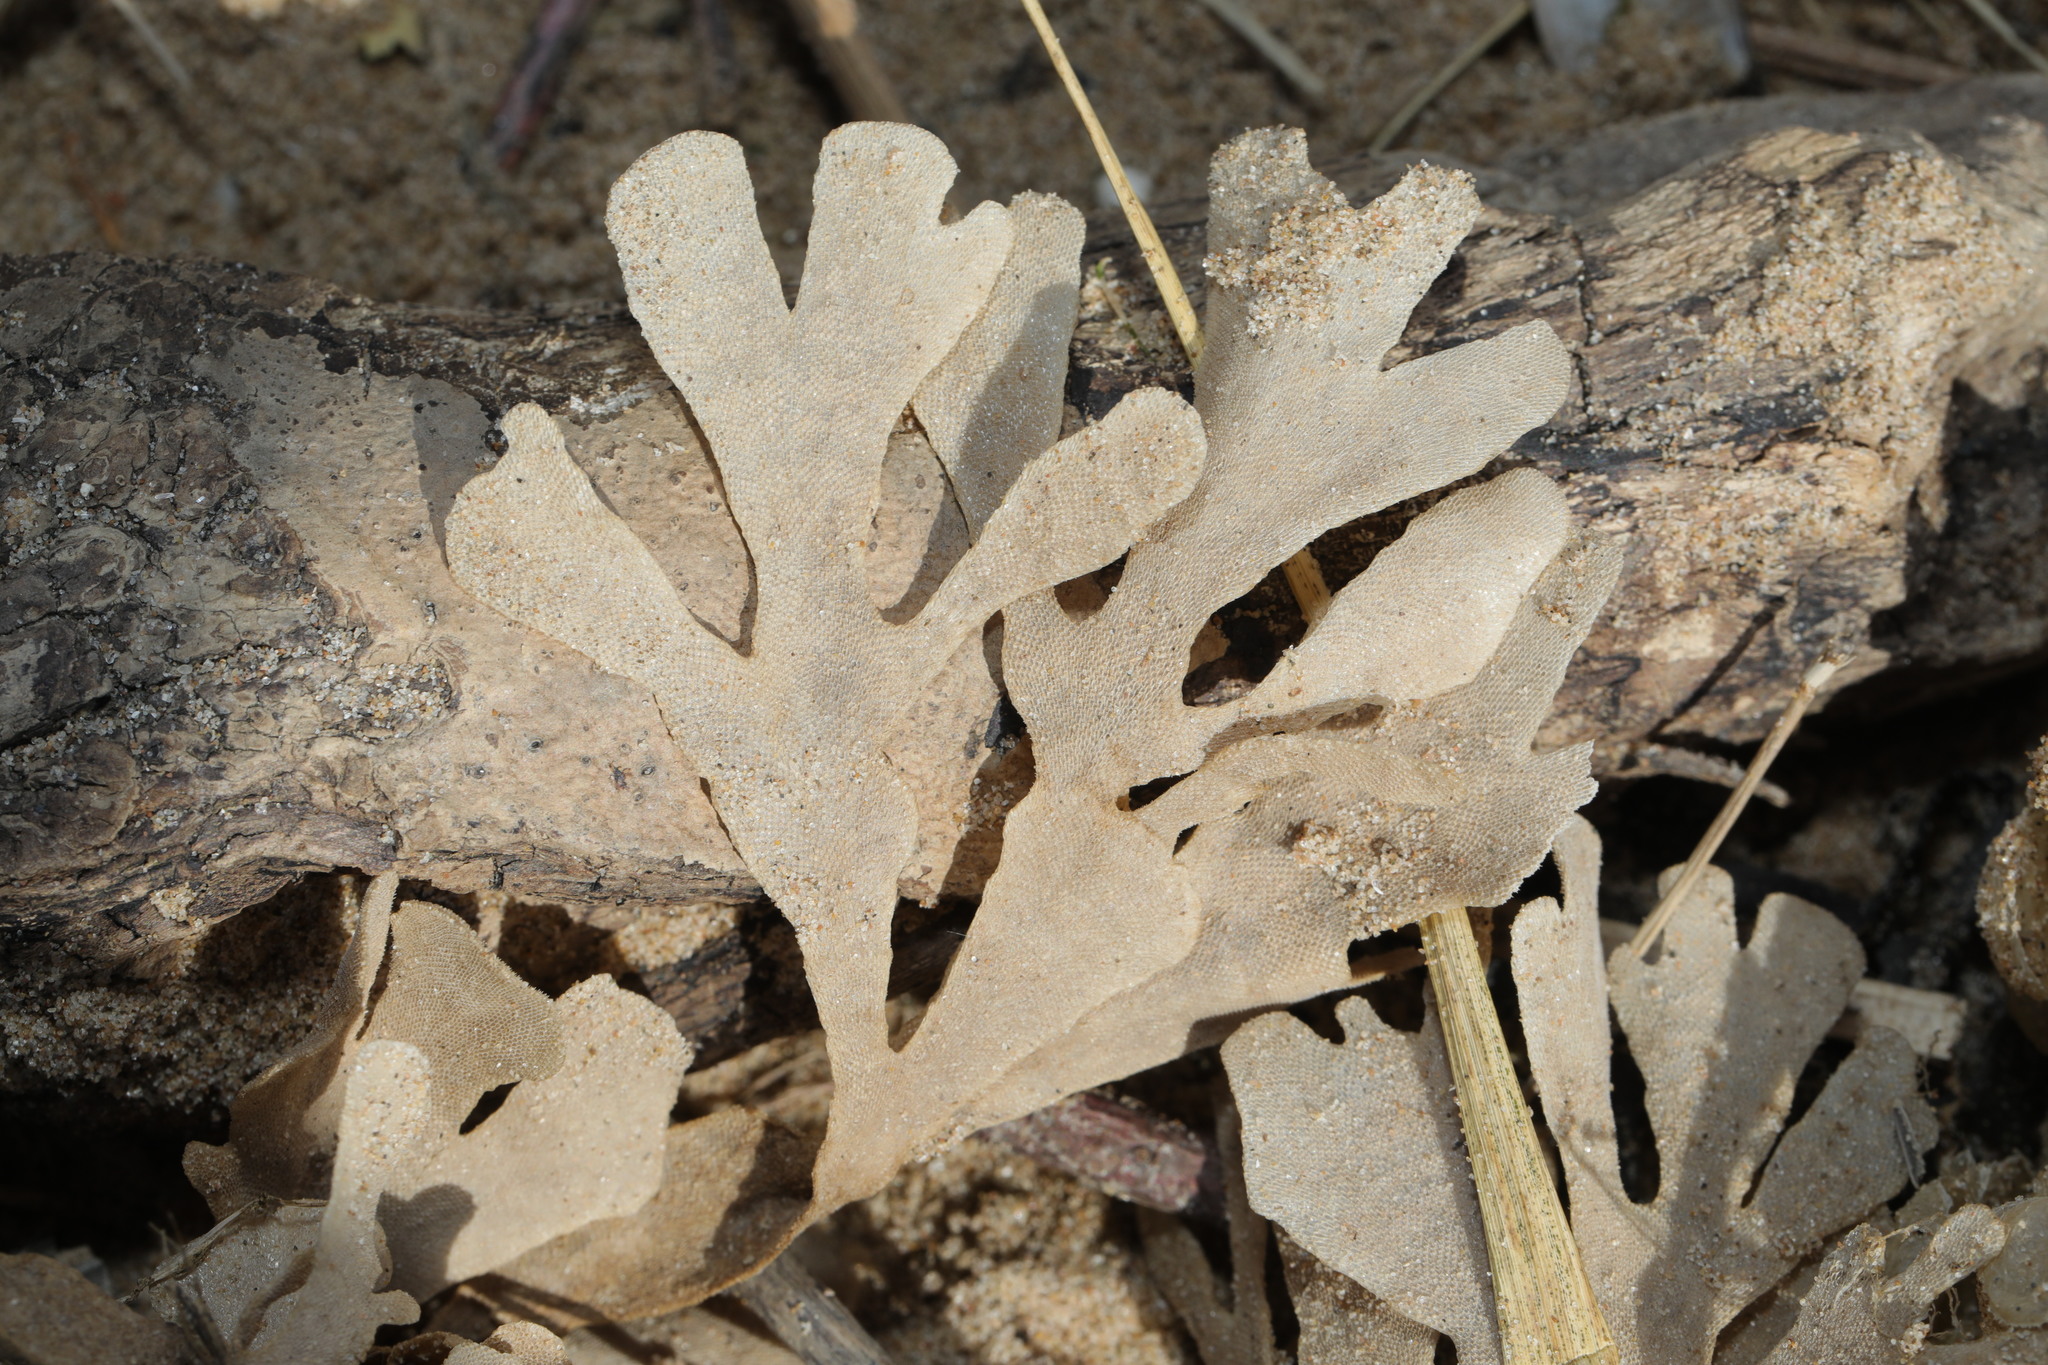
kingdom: Animalia
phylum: Bryozoa
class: Gymnolaemata
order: Cheilostomatida
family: Flustridae
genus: Flustra
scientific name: Flustra foliacea
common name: Hornwrack
